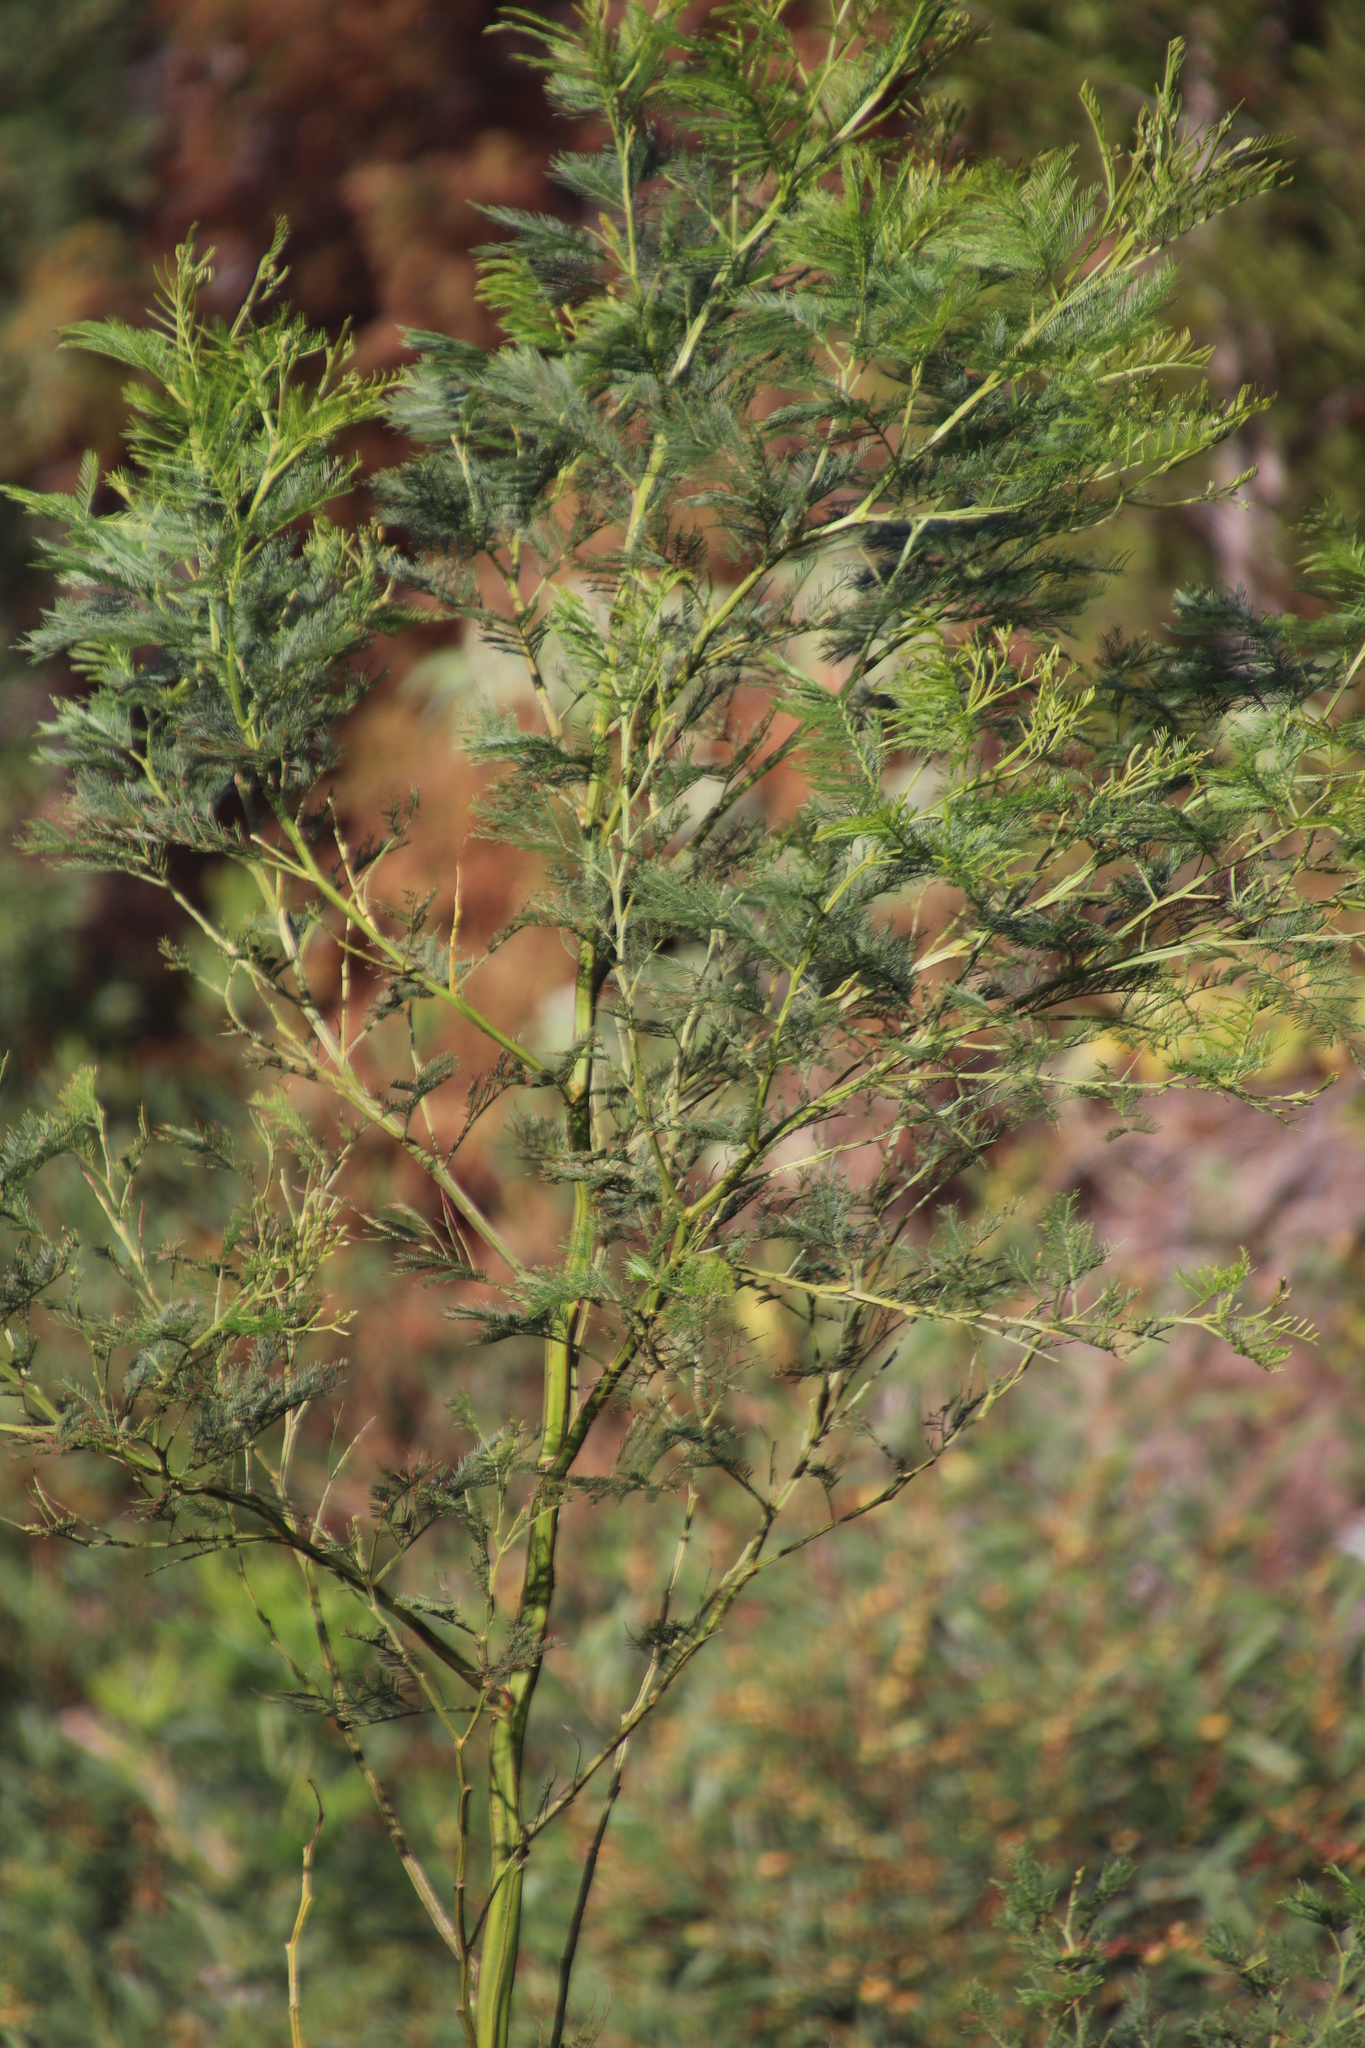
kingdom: Plantae
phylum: Tracheophyta
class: Magnoliopsida
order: Fabales
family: Fabaceae
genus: Acacia
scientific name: Acacia decurrens
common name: Green wattle
